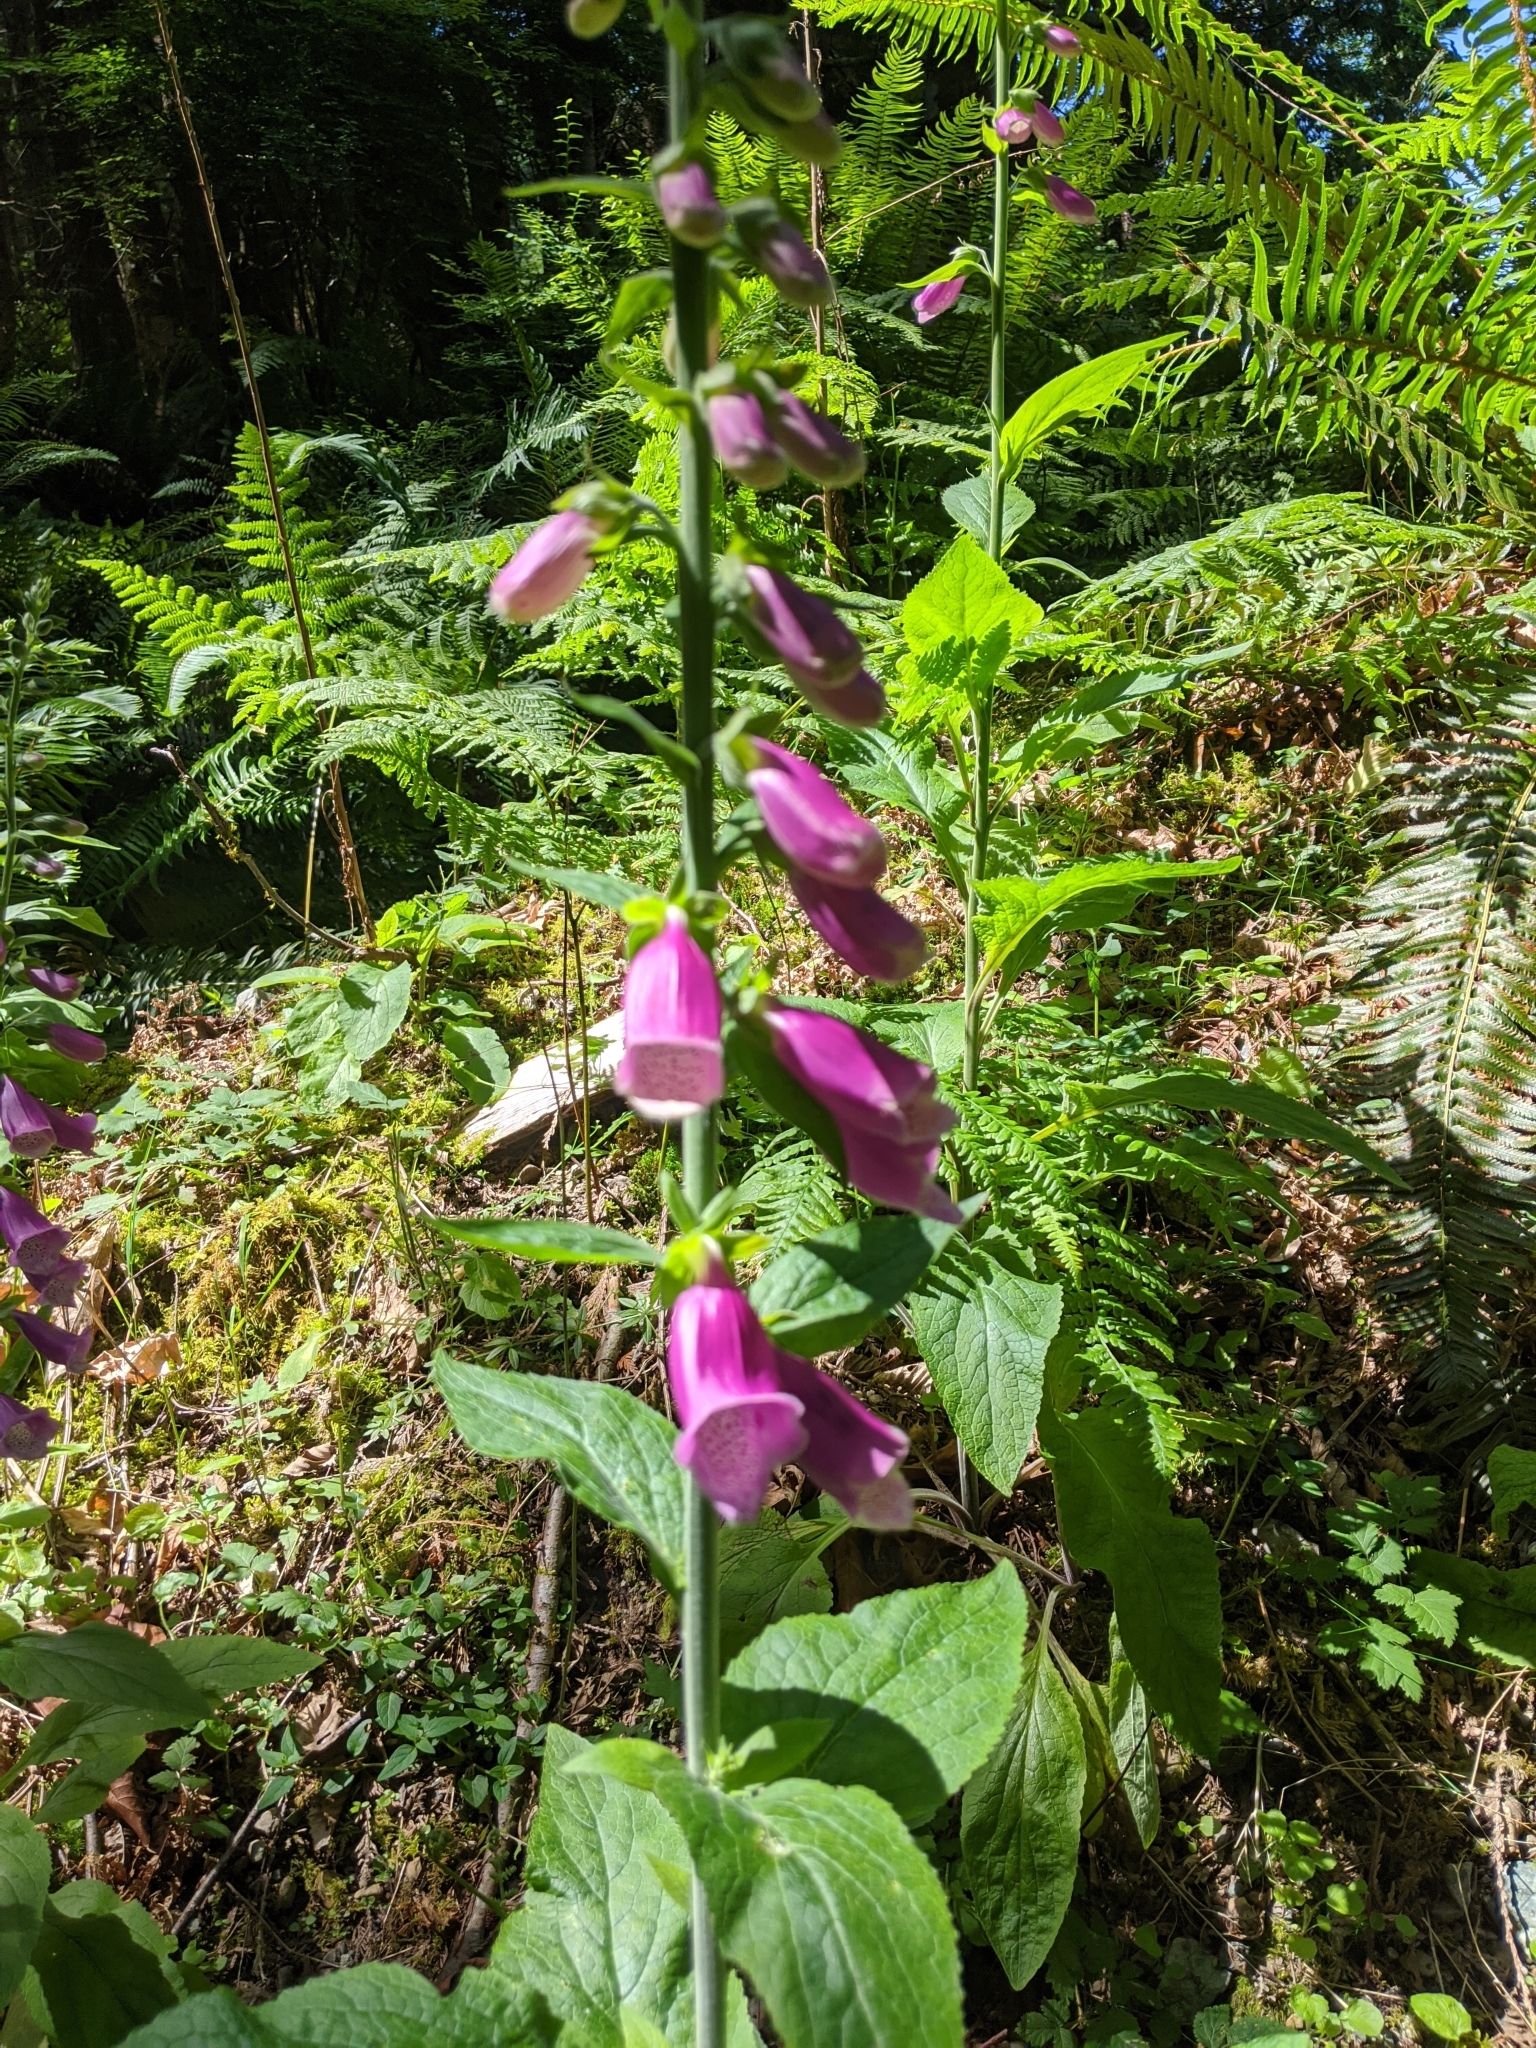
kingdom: Plantae
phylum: Tracheophyta
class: Magnoliopsida
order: Lamiales
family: Plantaginaceae
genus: Digitalis
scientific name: Digitalis purpurea
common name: Foxglove
